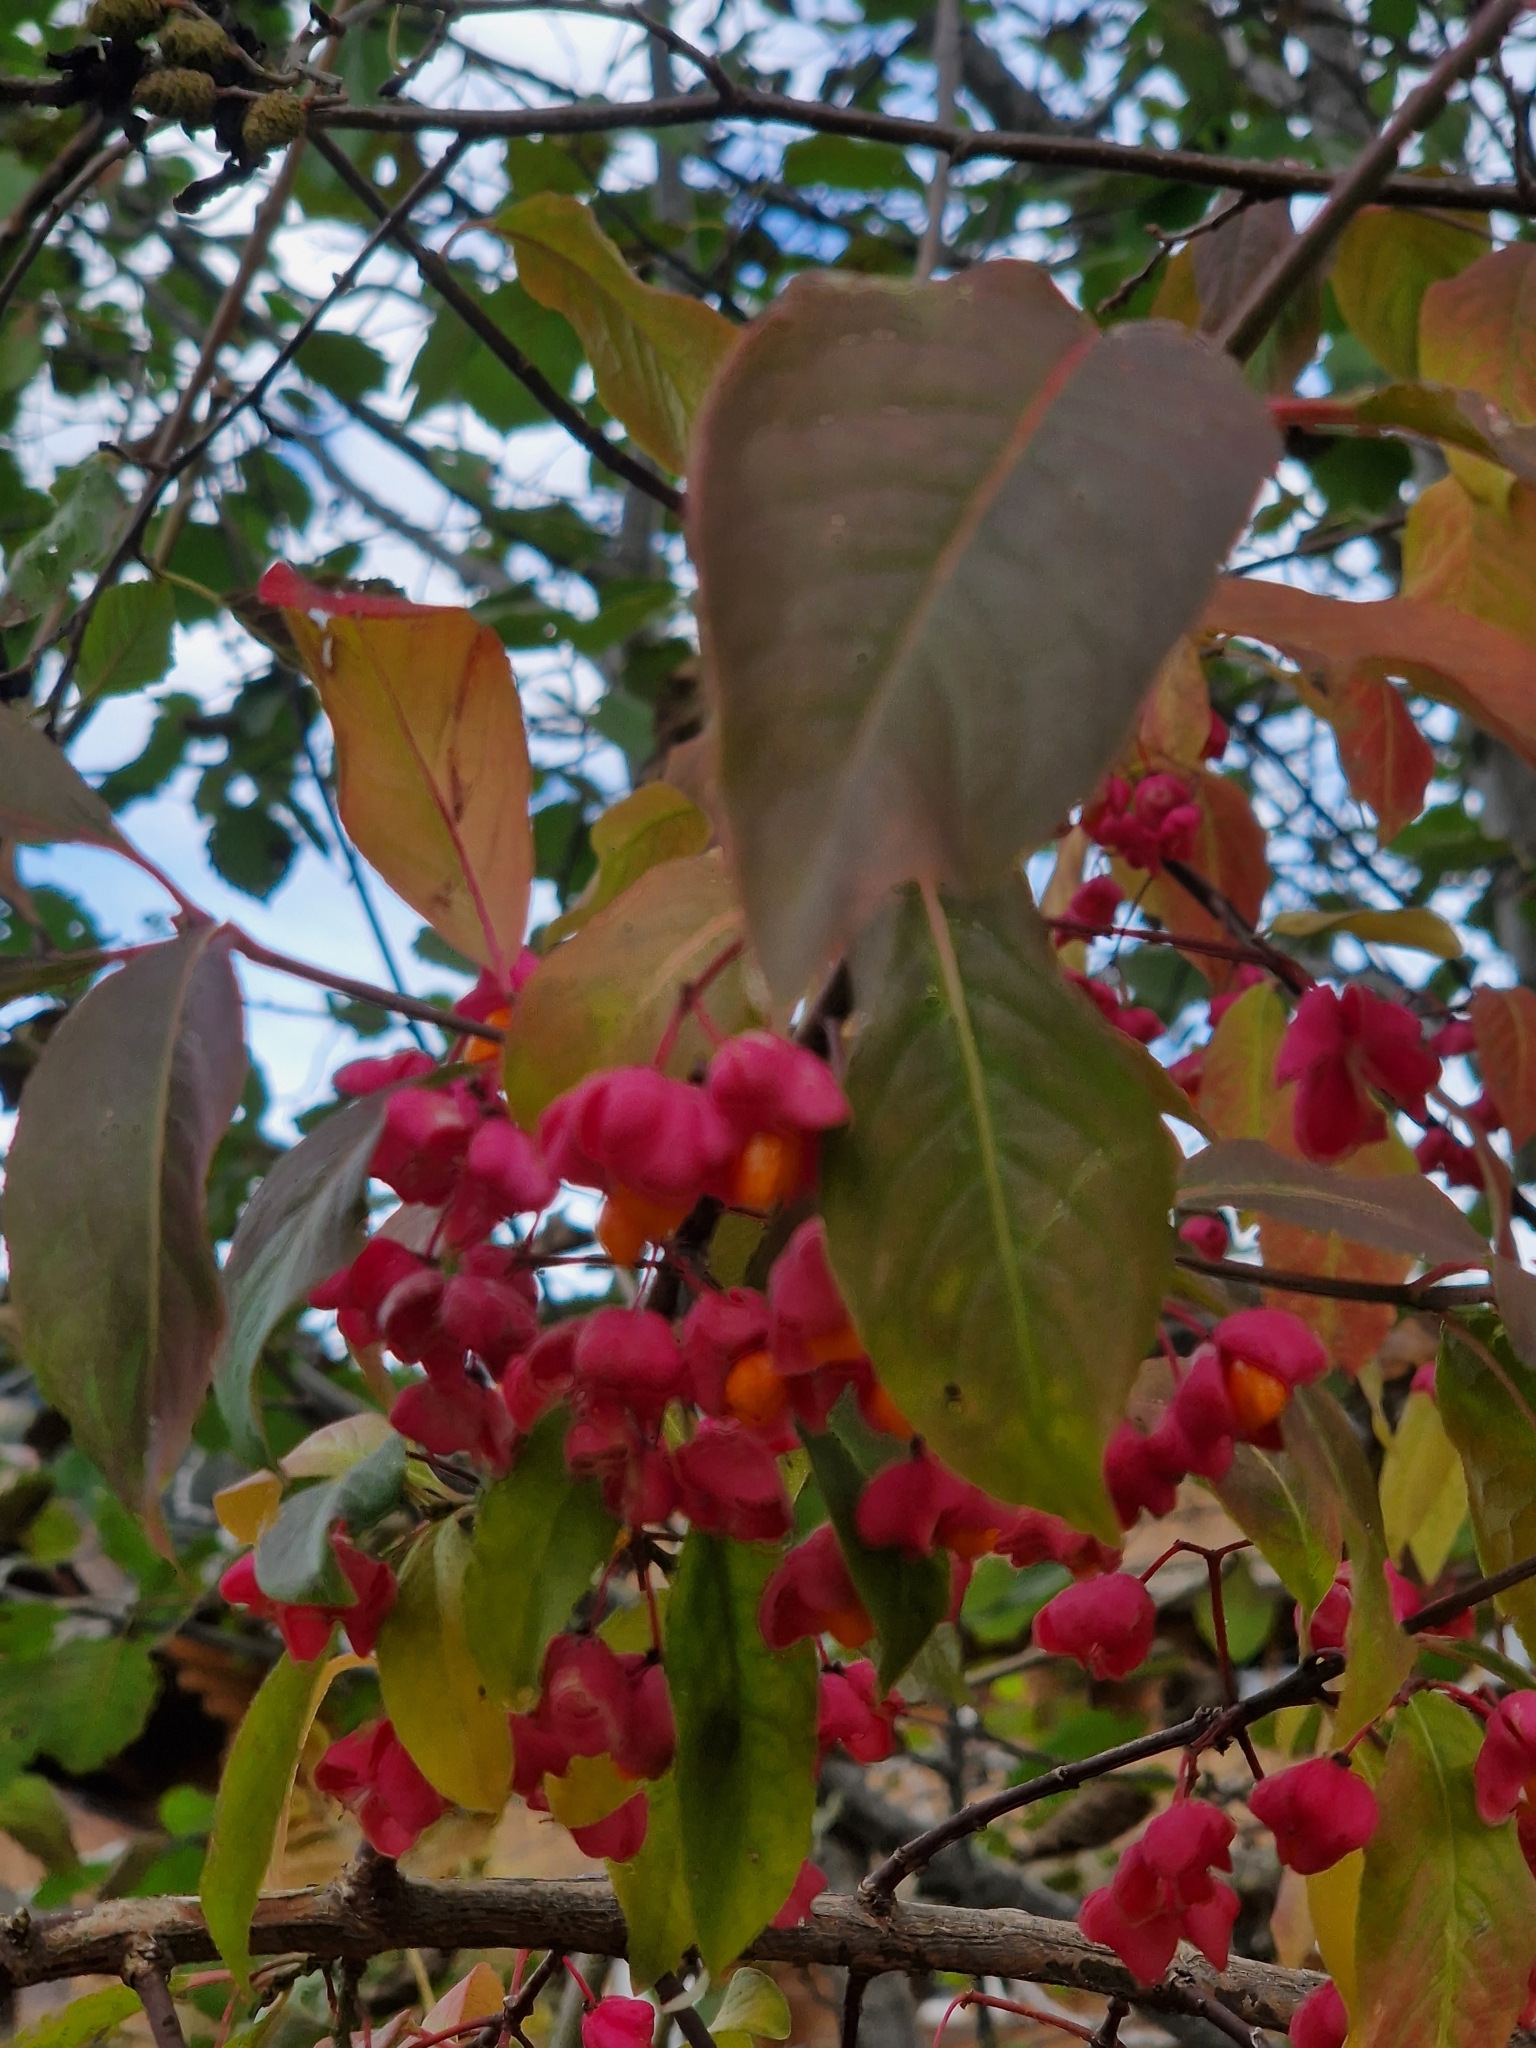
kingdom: Plantae
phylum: Tracheophyta
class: Magnoliopsida
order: Celastrales
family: Celastraceae
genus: Euonymus
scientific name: Euonymus europaeus
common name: Spindle
